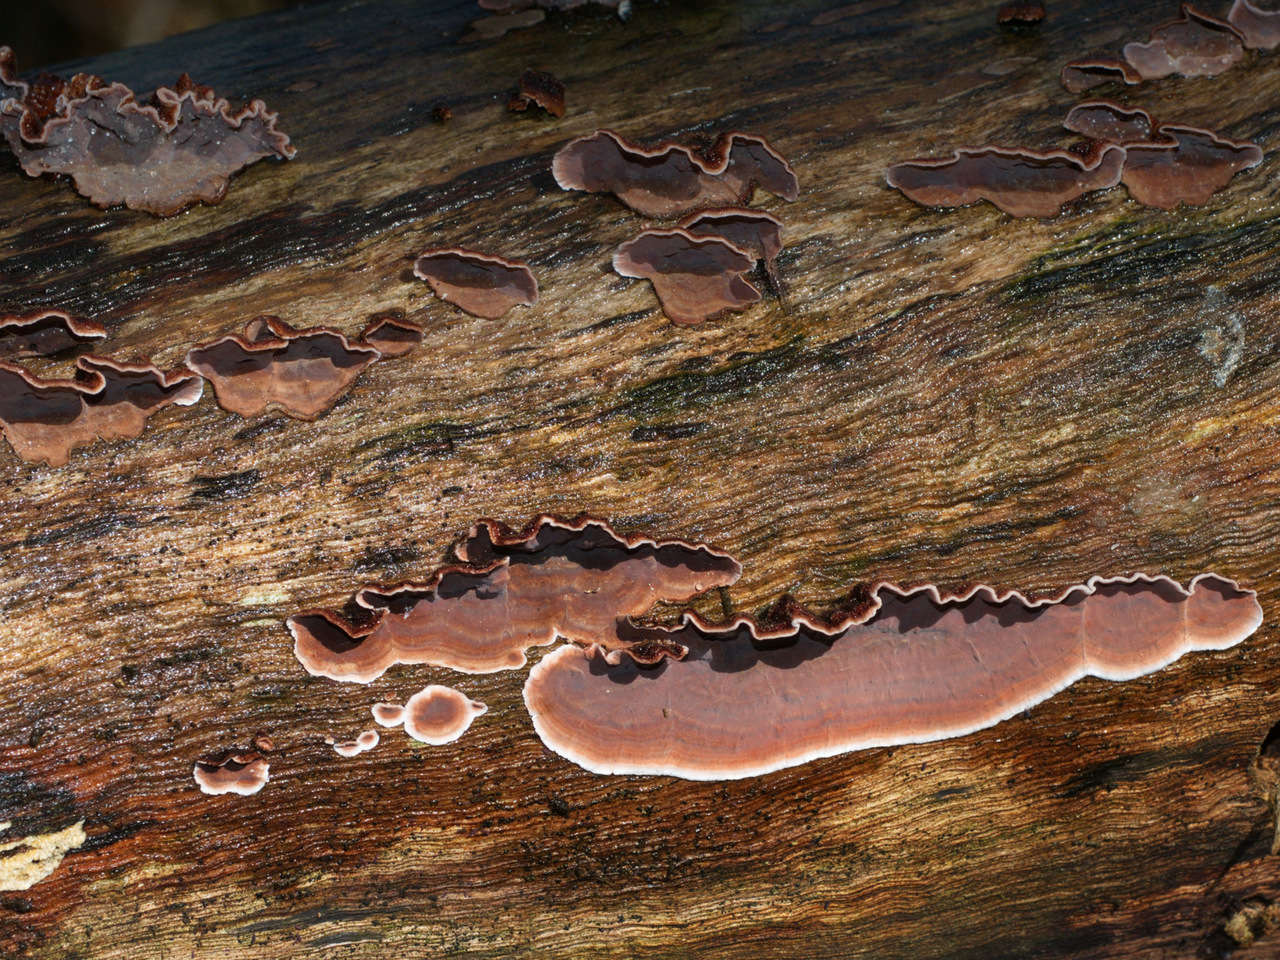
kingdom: Fungi
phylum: Basidiomycota
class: Agaricomycetes
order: Russulales
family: Stereaceae
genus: Xylobolus
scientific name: Xylobolus illudens
